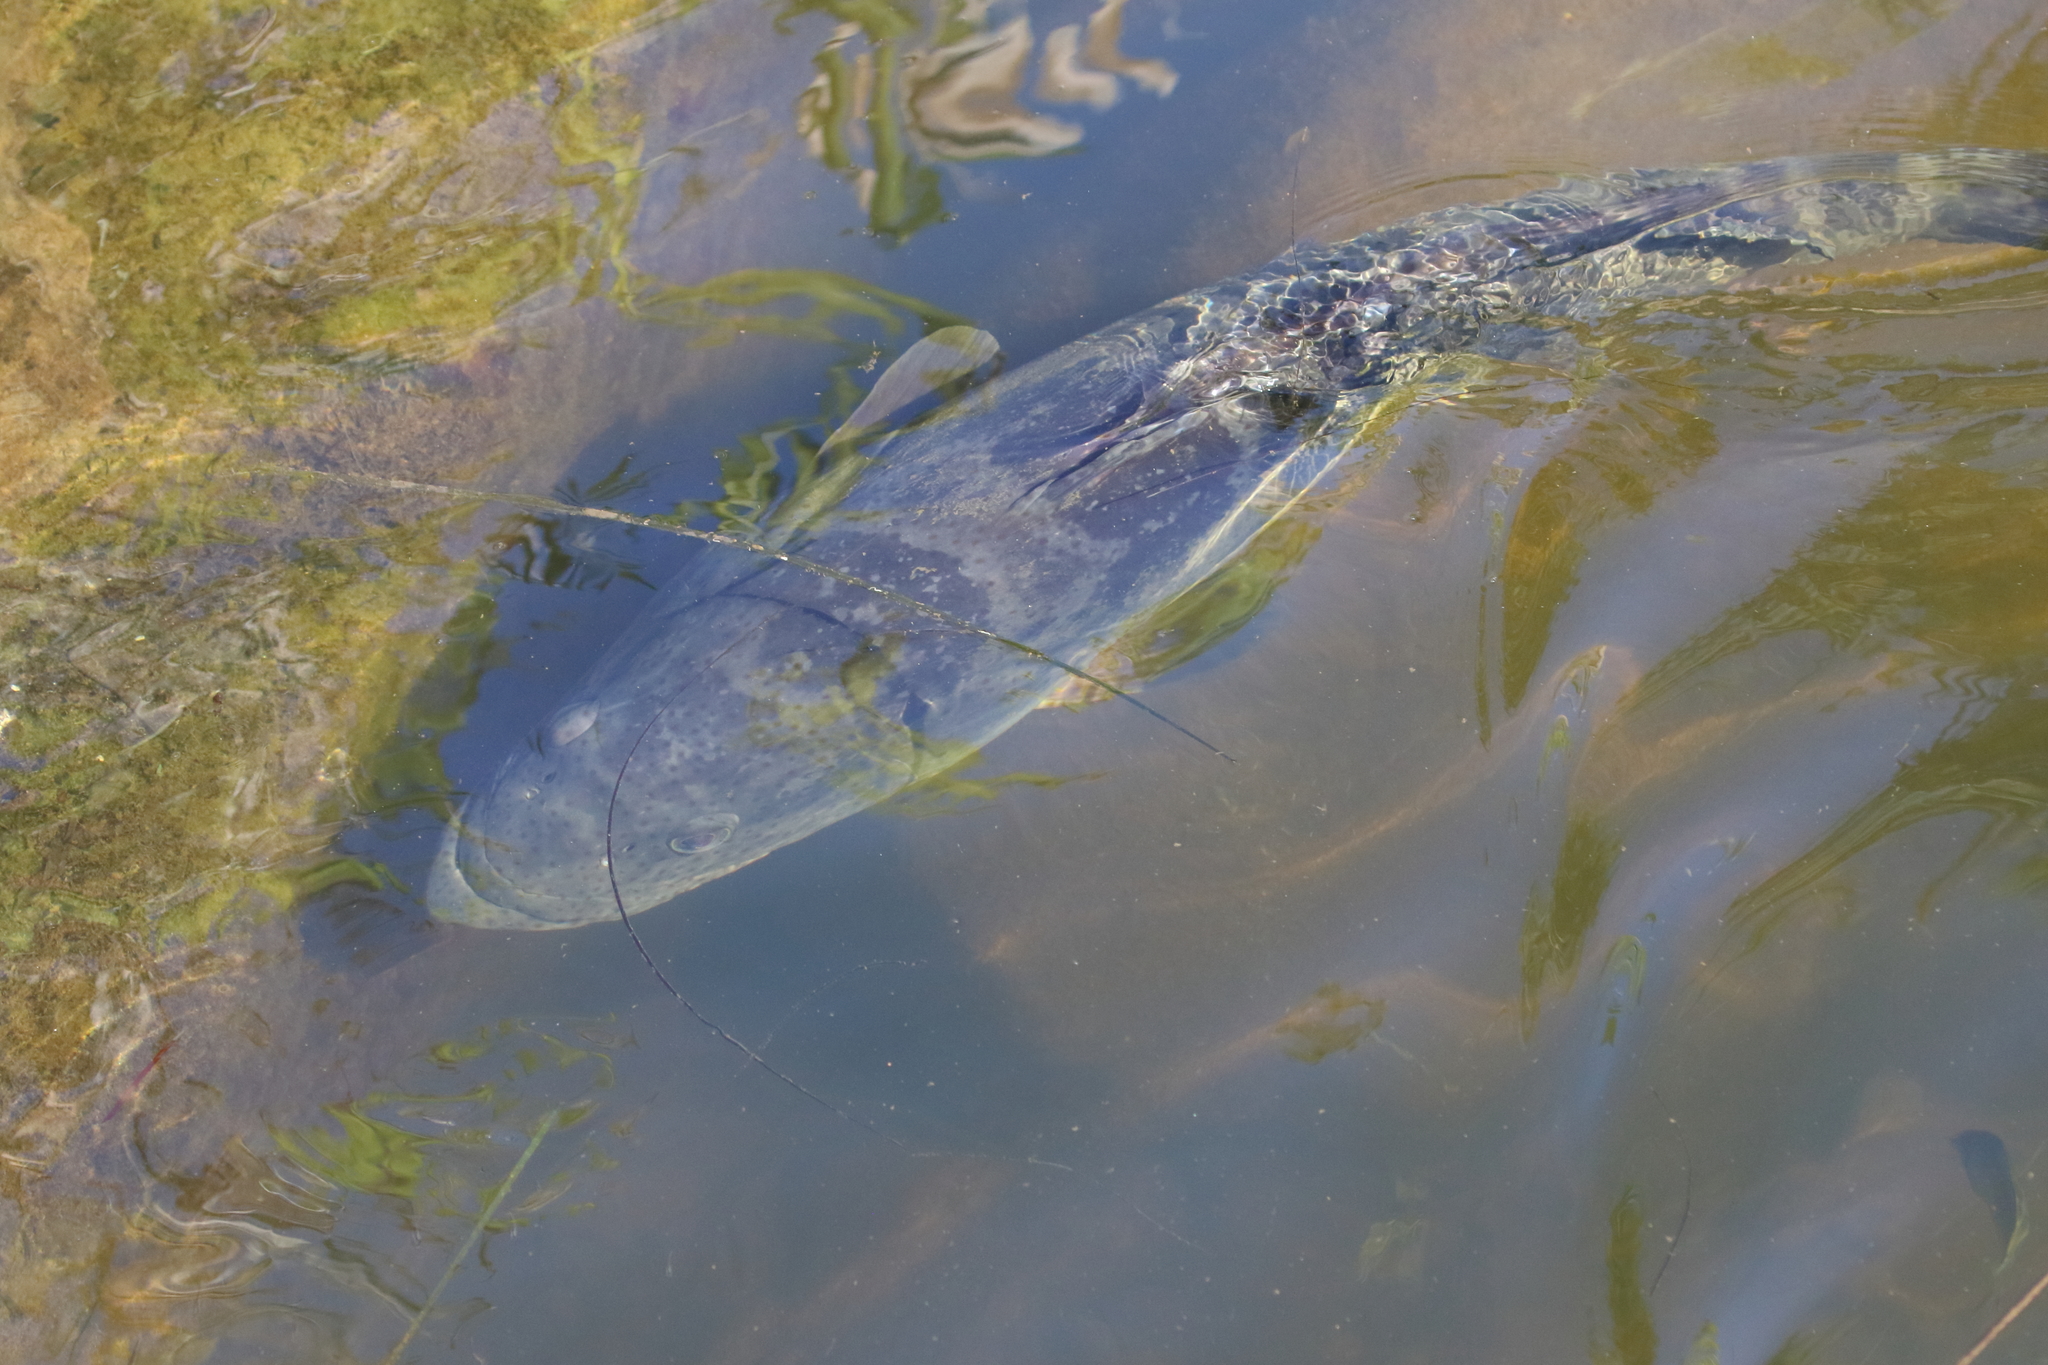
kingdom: Animalia
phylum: Chordata
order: Perciformes
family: Serranidae
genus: Epinephelus
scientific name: Epinephelus coioides
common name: Orange-spotted grouper
